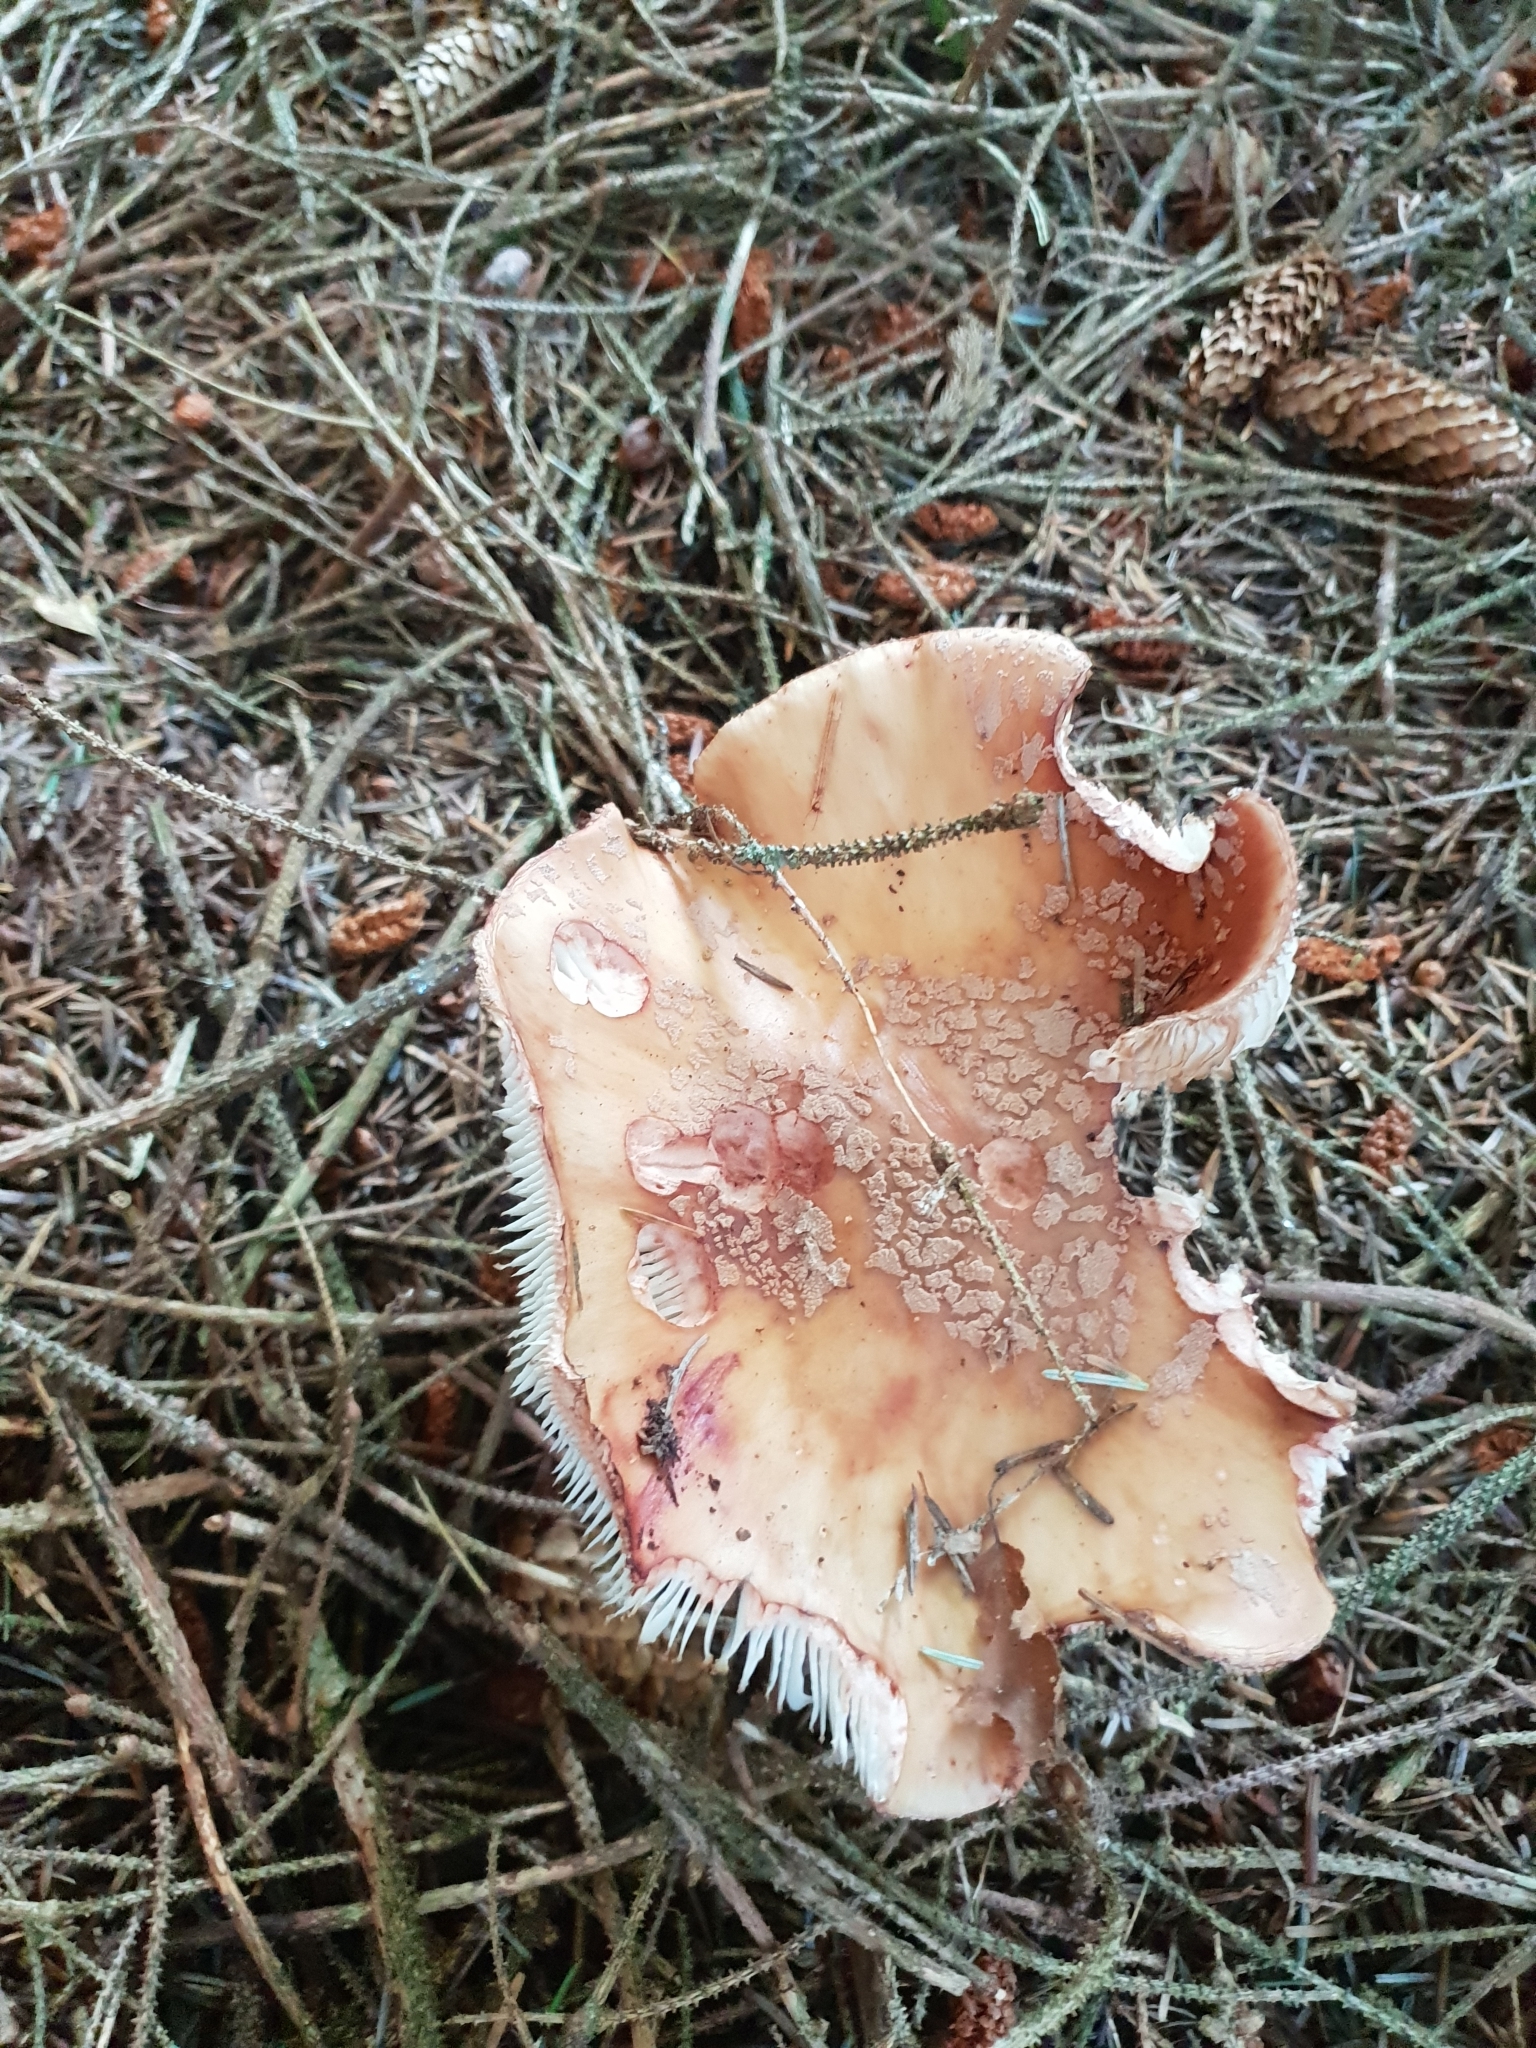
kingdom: Fungi
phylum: Basidiomycota
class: Agaricomycetes
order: Agaricales
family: Amanitaceae
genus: Amanita
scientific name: Amanita rubescens
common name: Blusher
